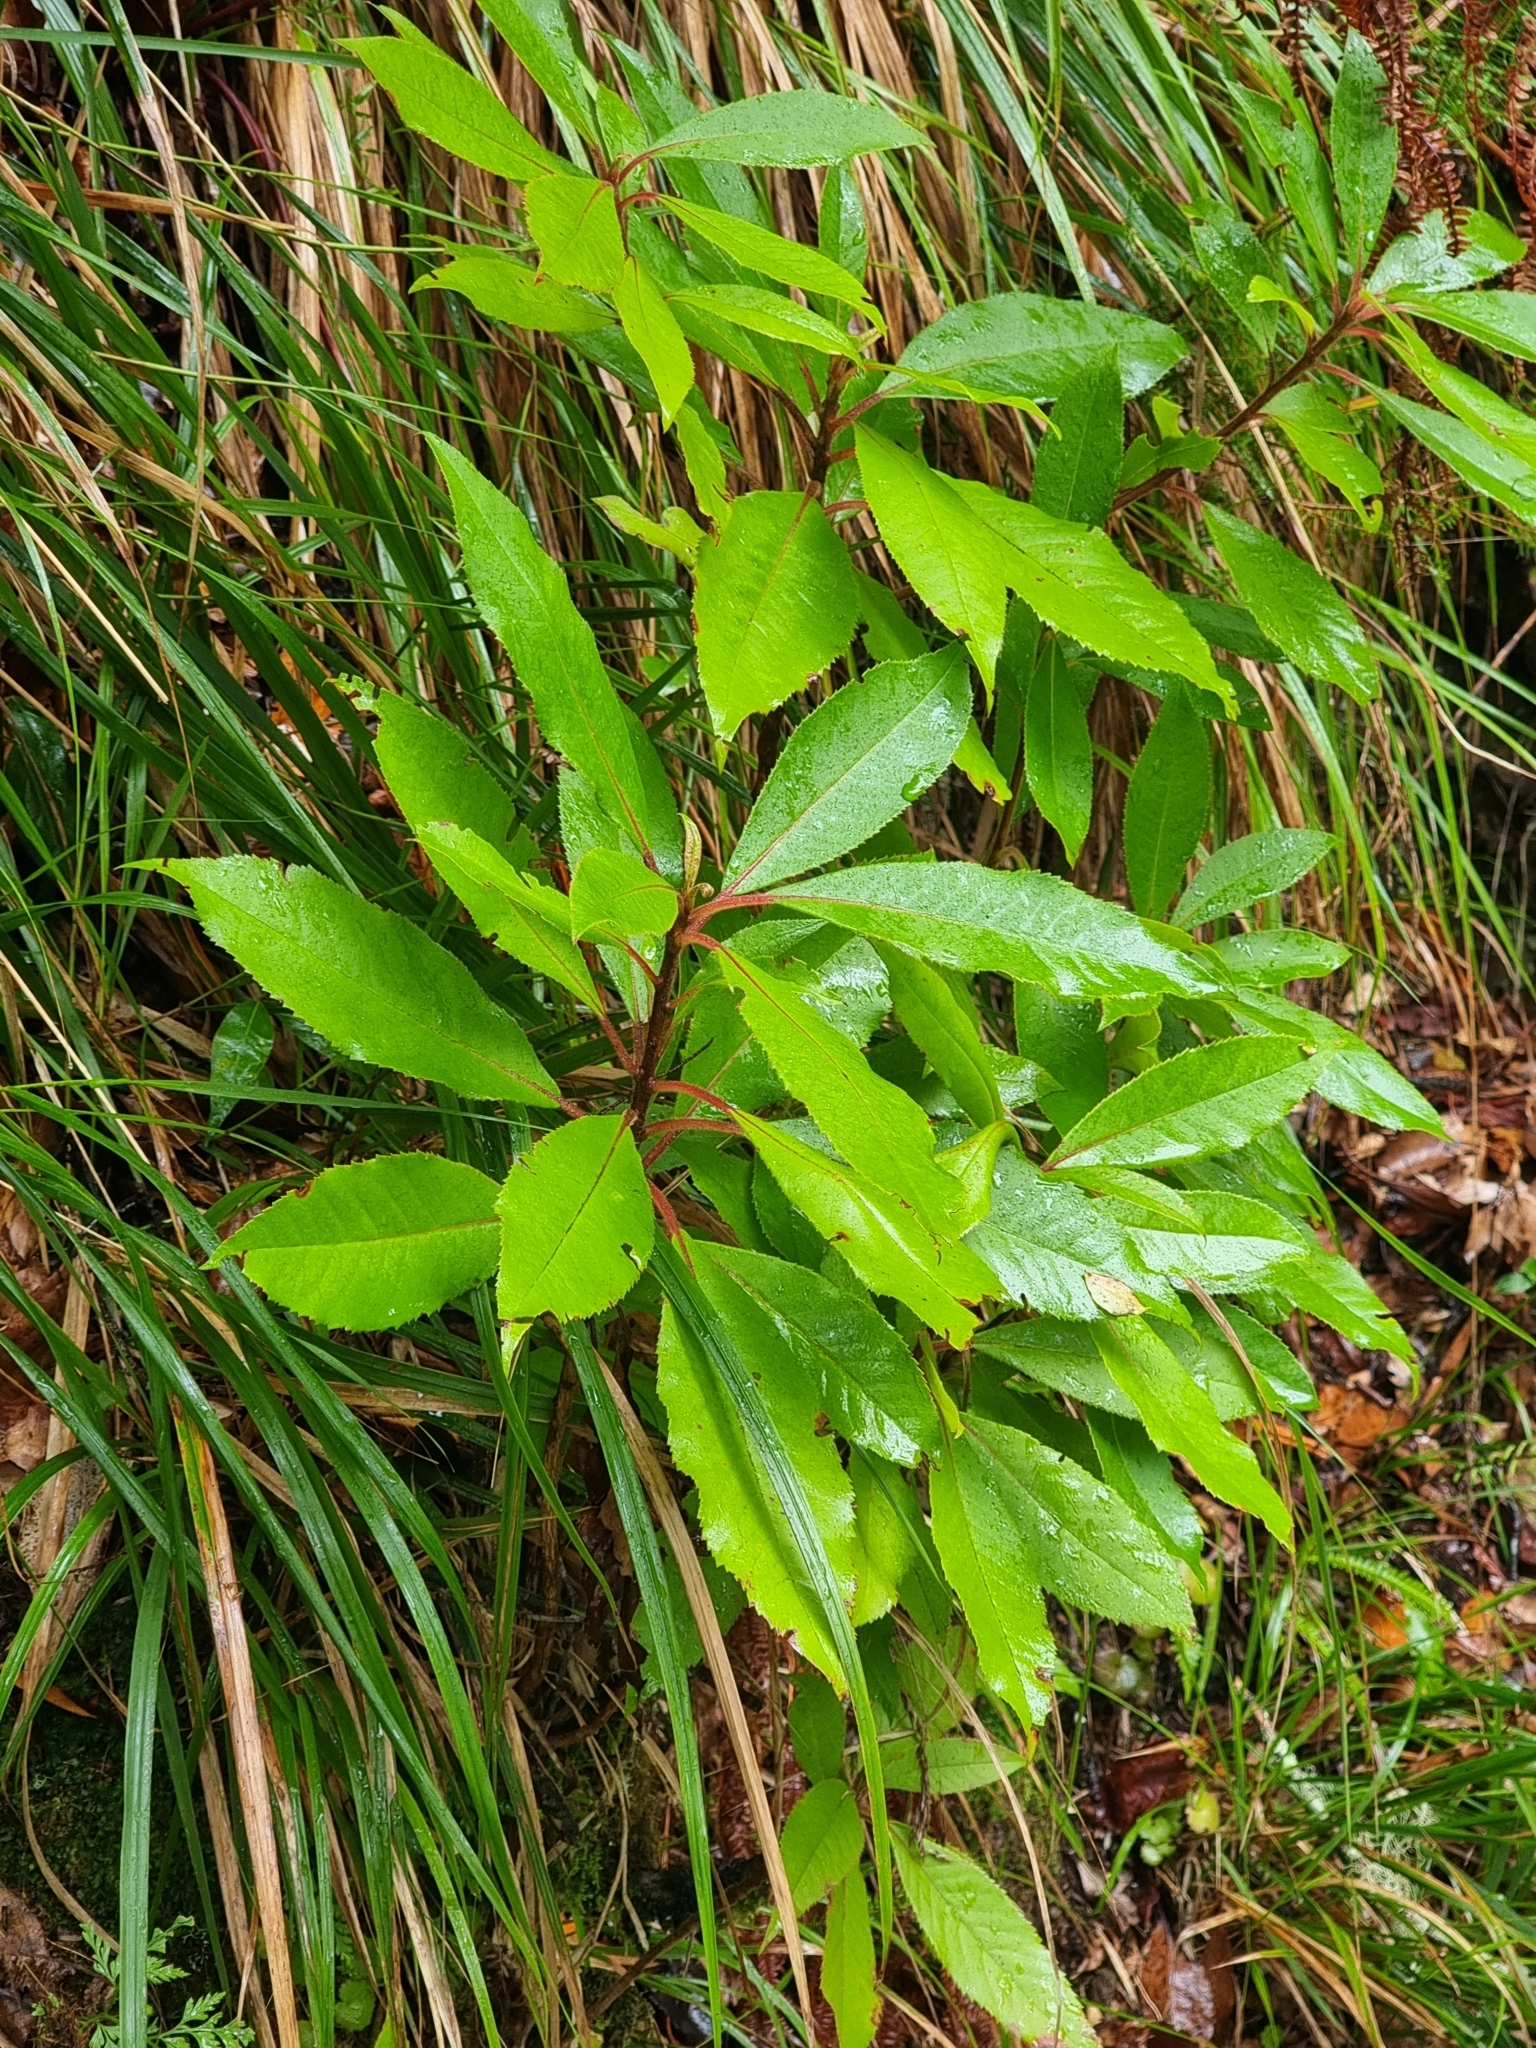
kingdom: Plantae
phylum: Tracheophyta
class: Magnoliopsida
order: Ericales
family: Clethraceae
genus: Clethra
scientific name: Clethra arborea
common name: Lily-of-the-valley-tree
